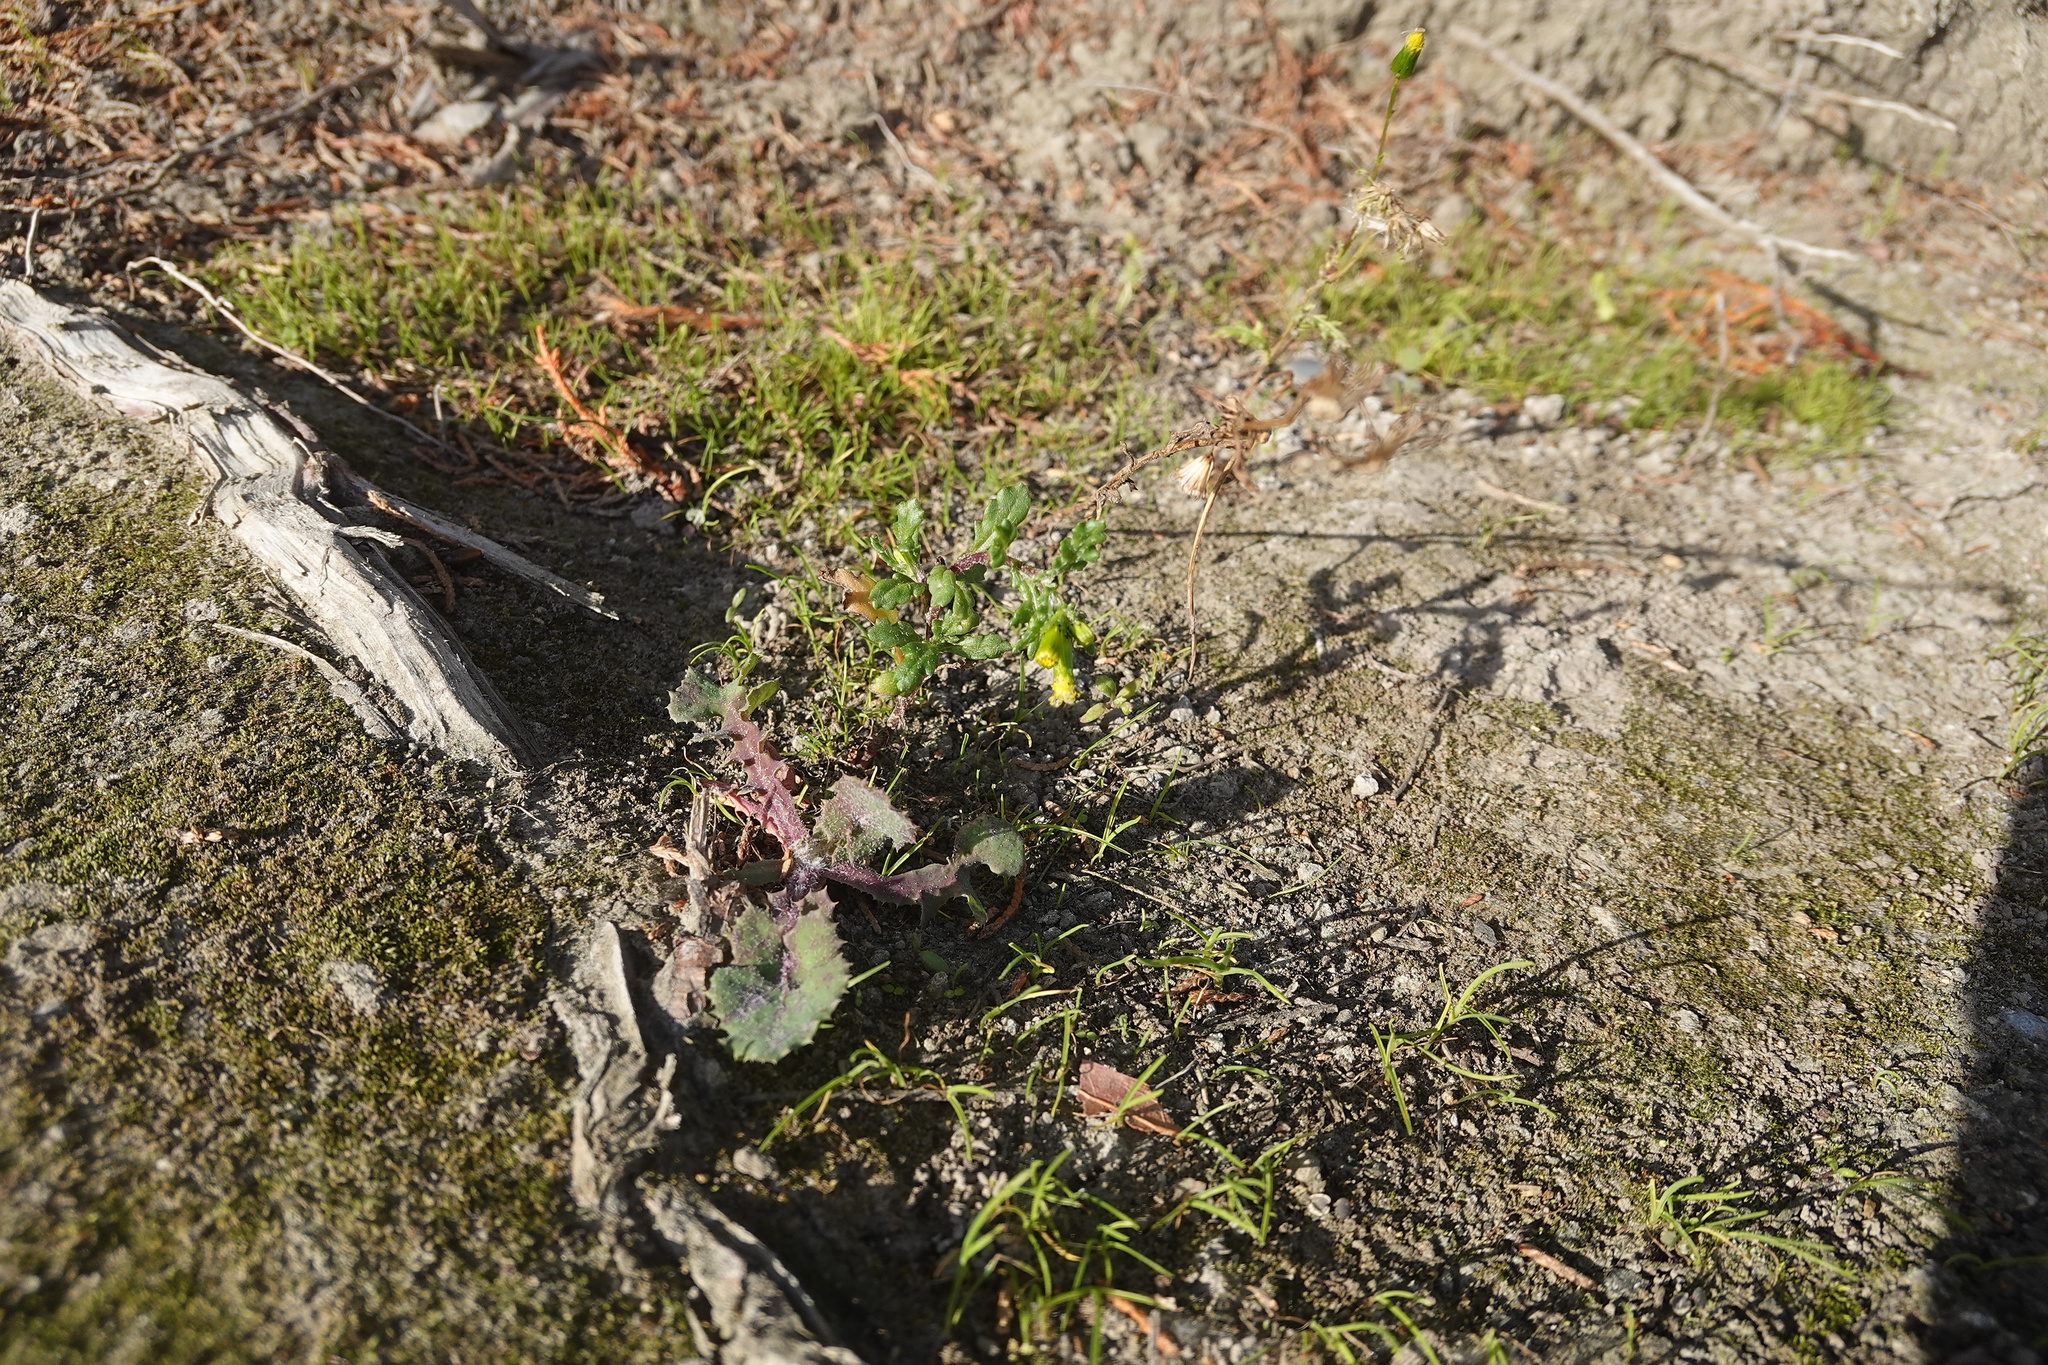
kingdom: Plantae
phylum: Tracheophyta
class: Magnoliopsida
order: Asterales
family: Asteraceae
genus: Senecio
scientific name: Senecio vulgaris
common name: Old-man-in-the-spring
